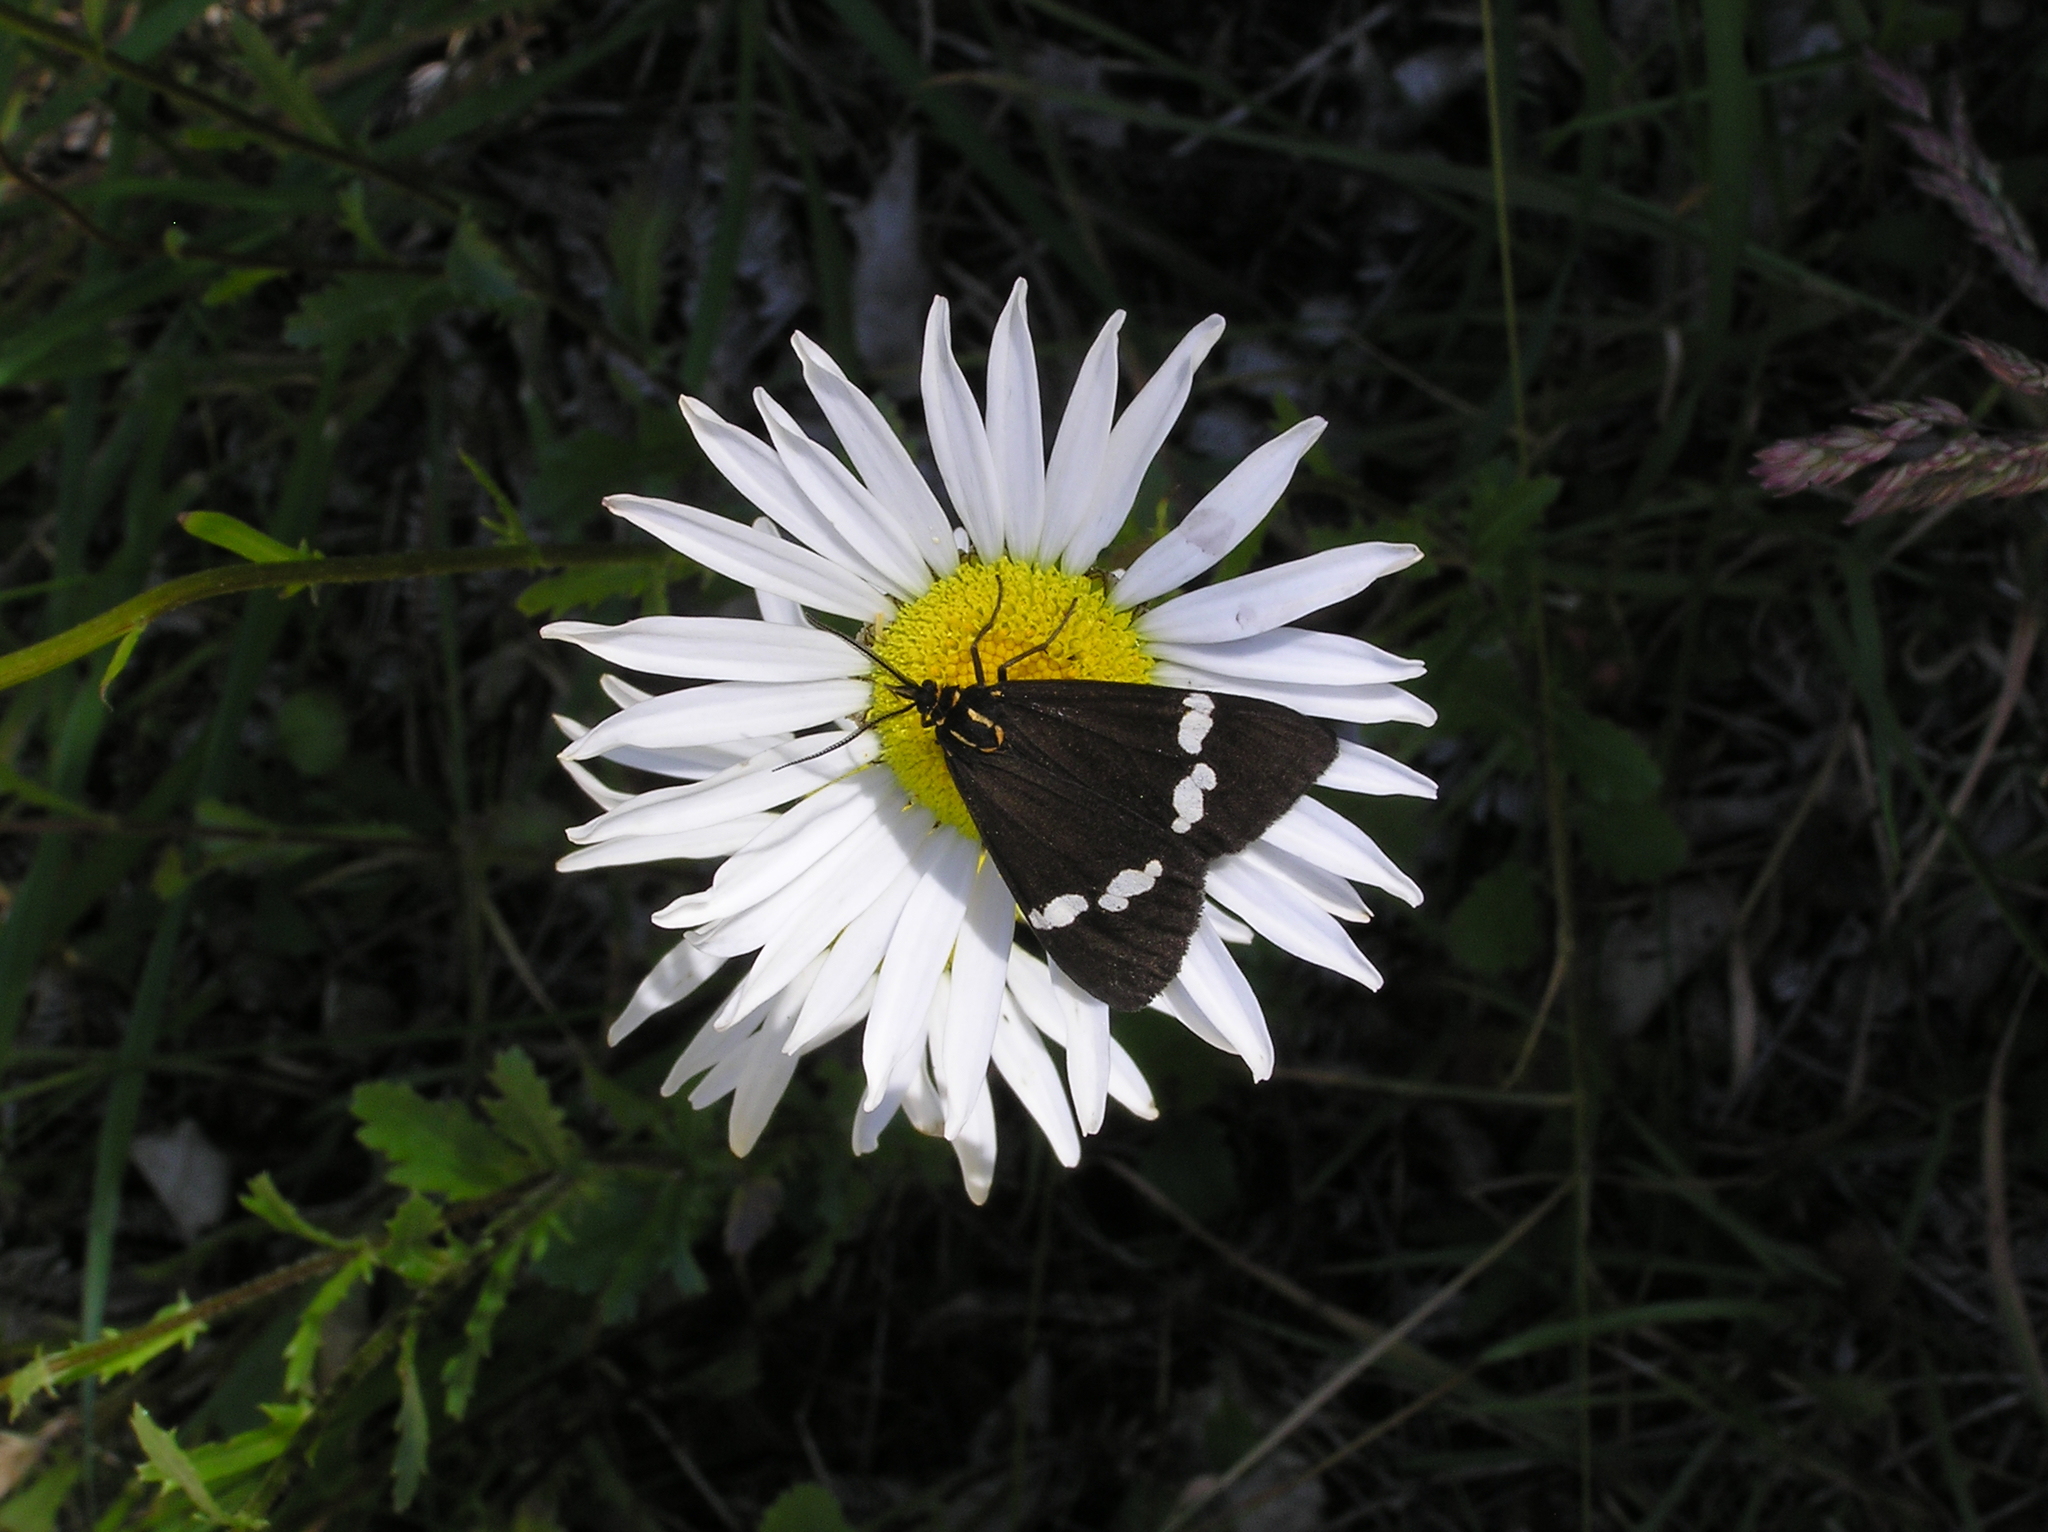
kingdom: Animalia
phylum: Arthropoda
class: Insecta
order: Lepidoptera
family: Erebidae
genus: Nyctemera
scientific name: Nyctemera annulatum
